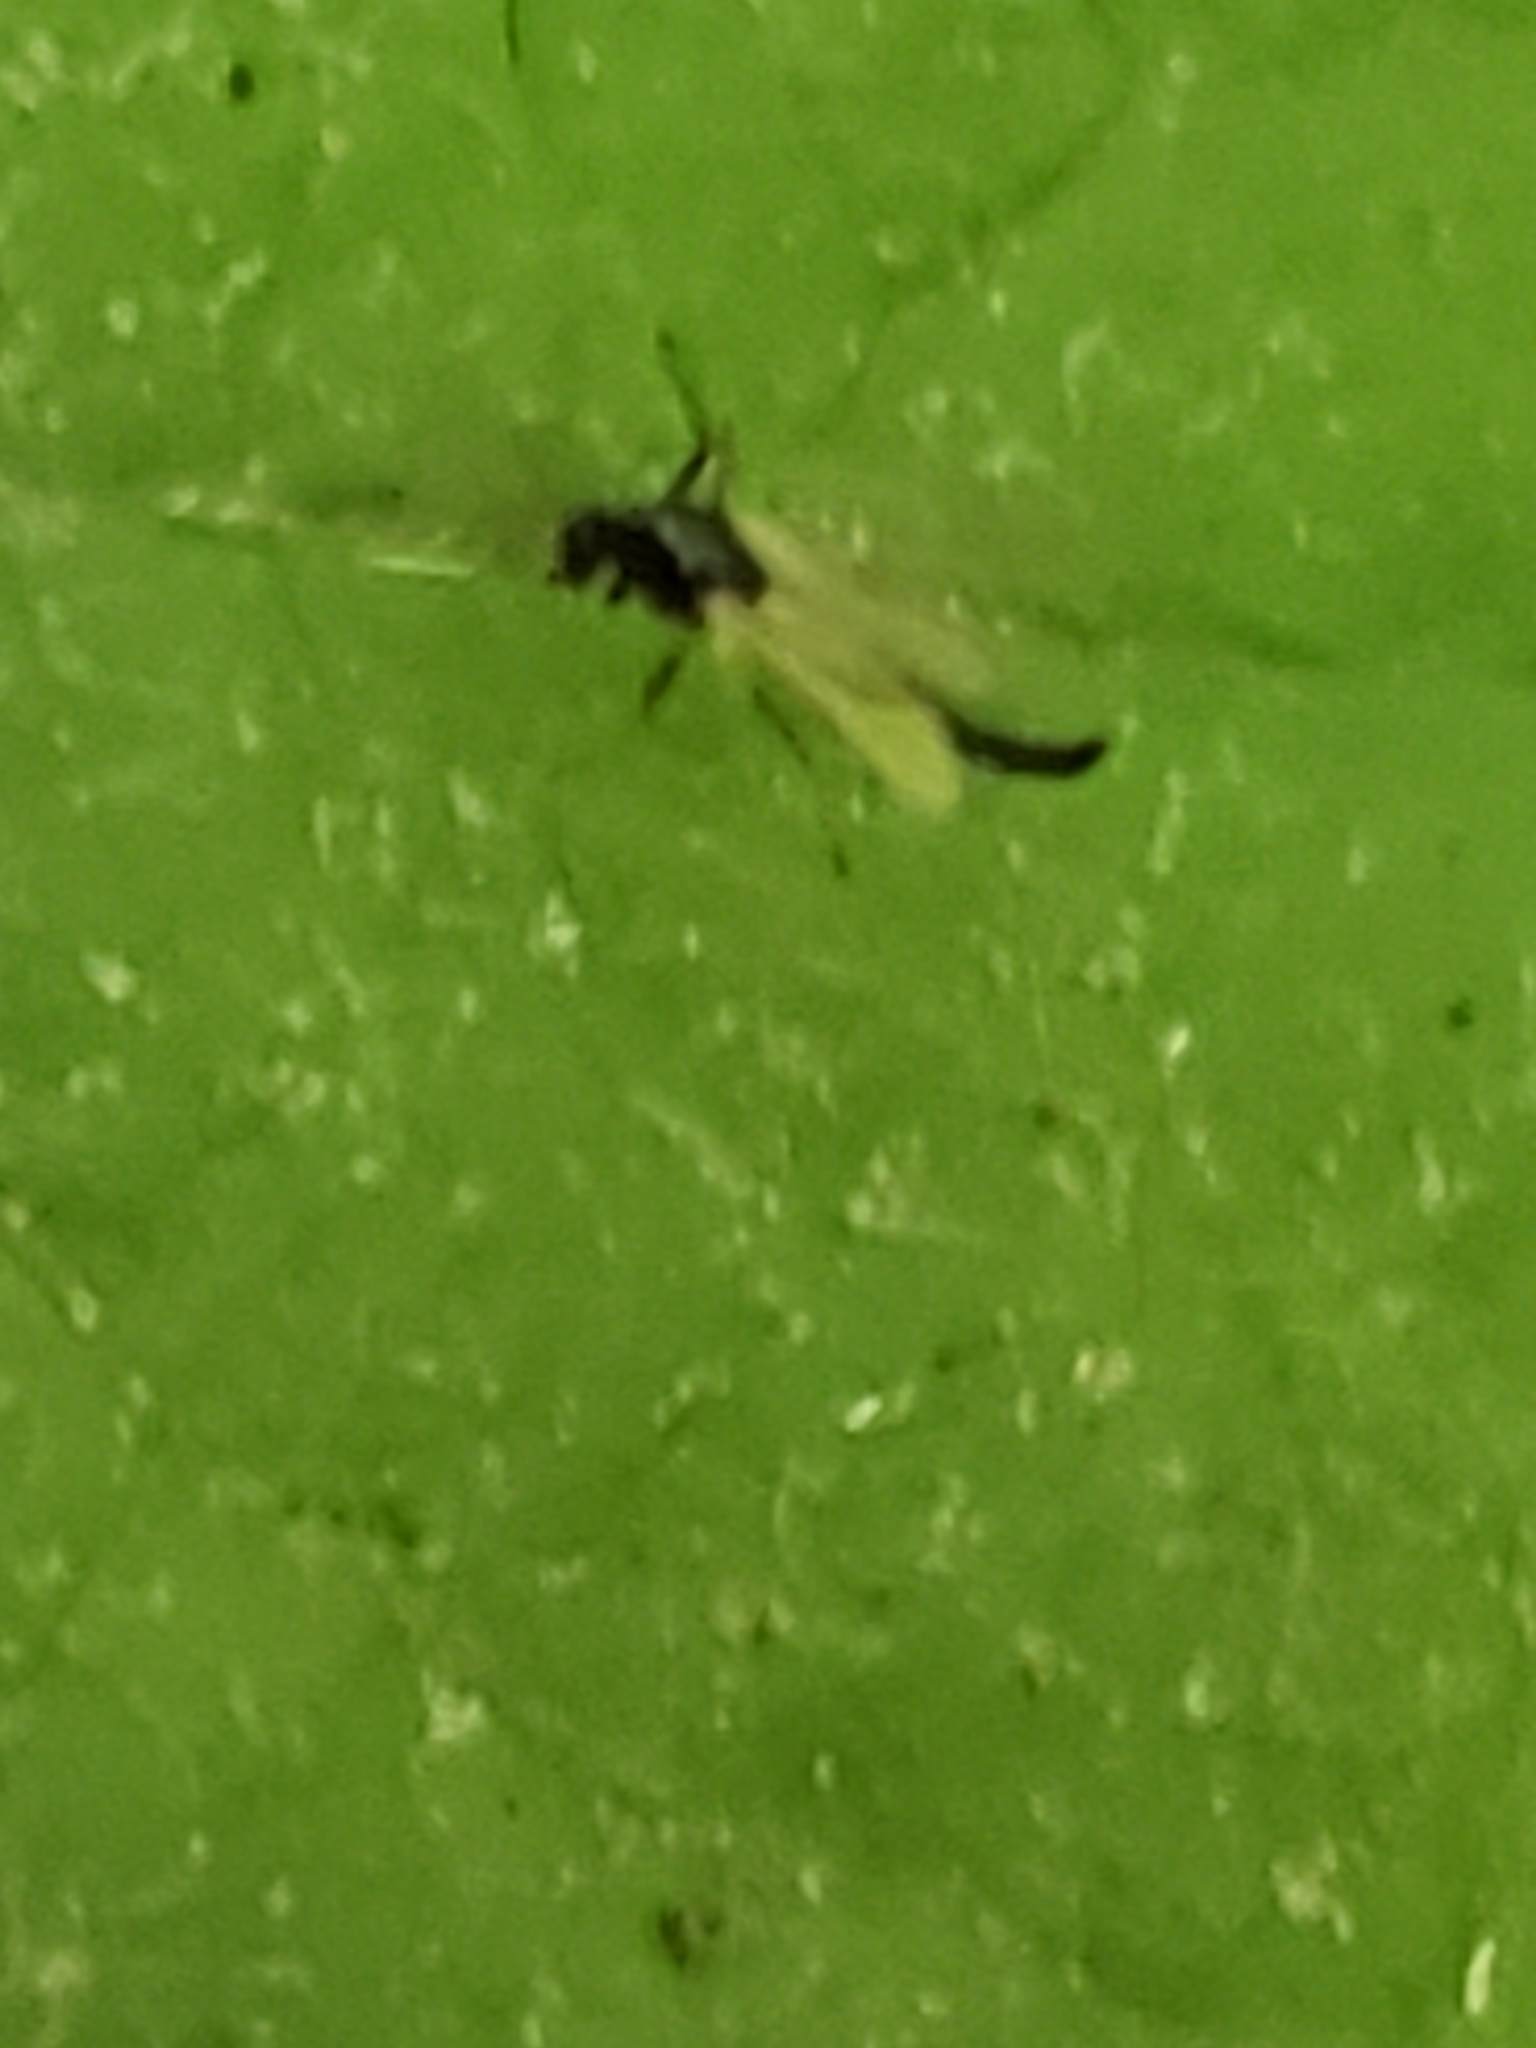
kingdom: Animalia
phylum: Arthropoda
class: Insecta
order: Diptera
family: Chironomidae
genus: Paratendipes
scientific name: Paratendipes albimanus
